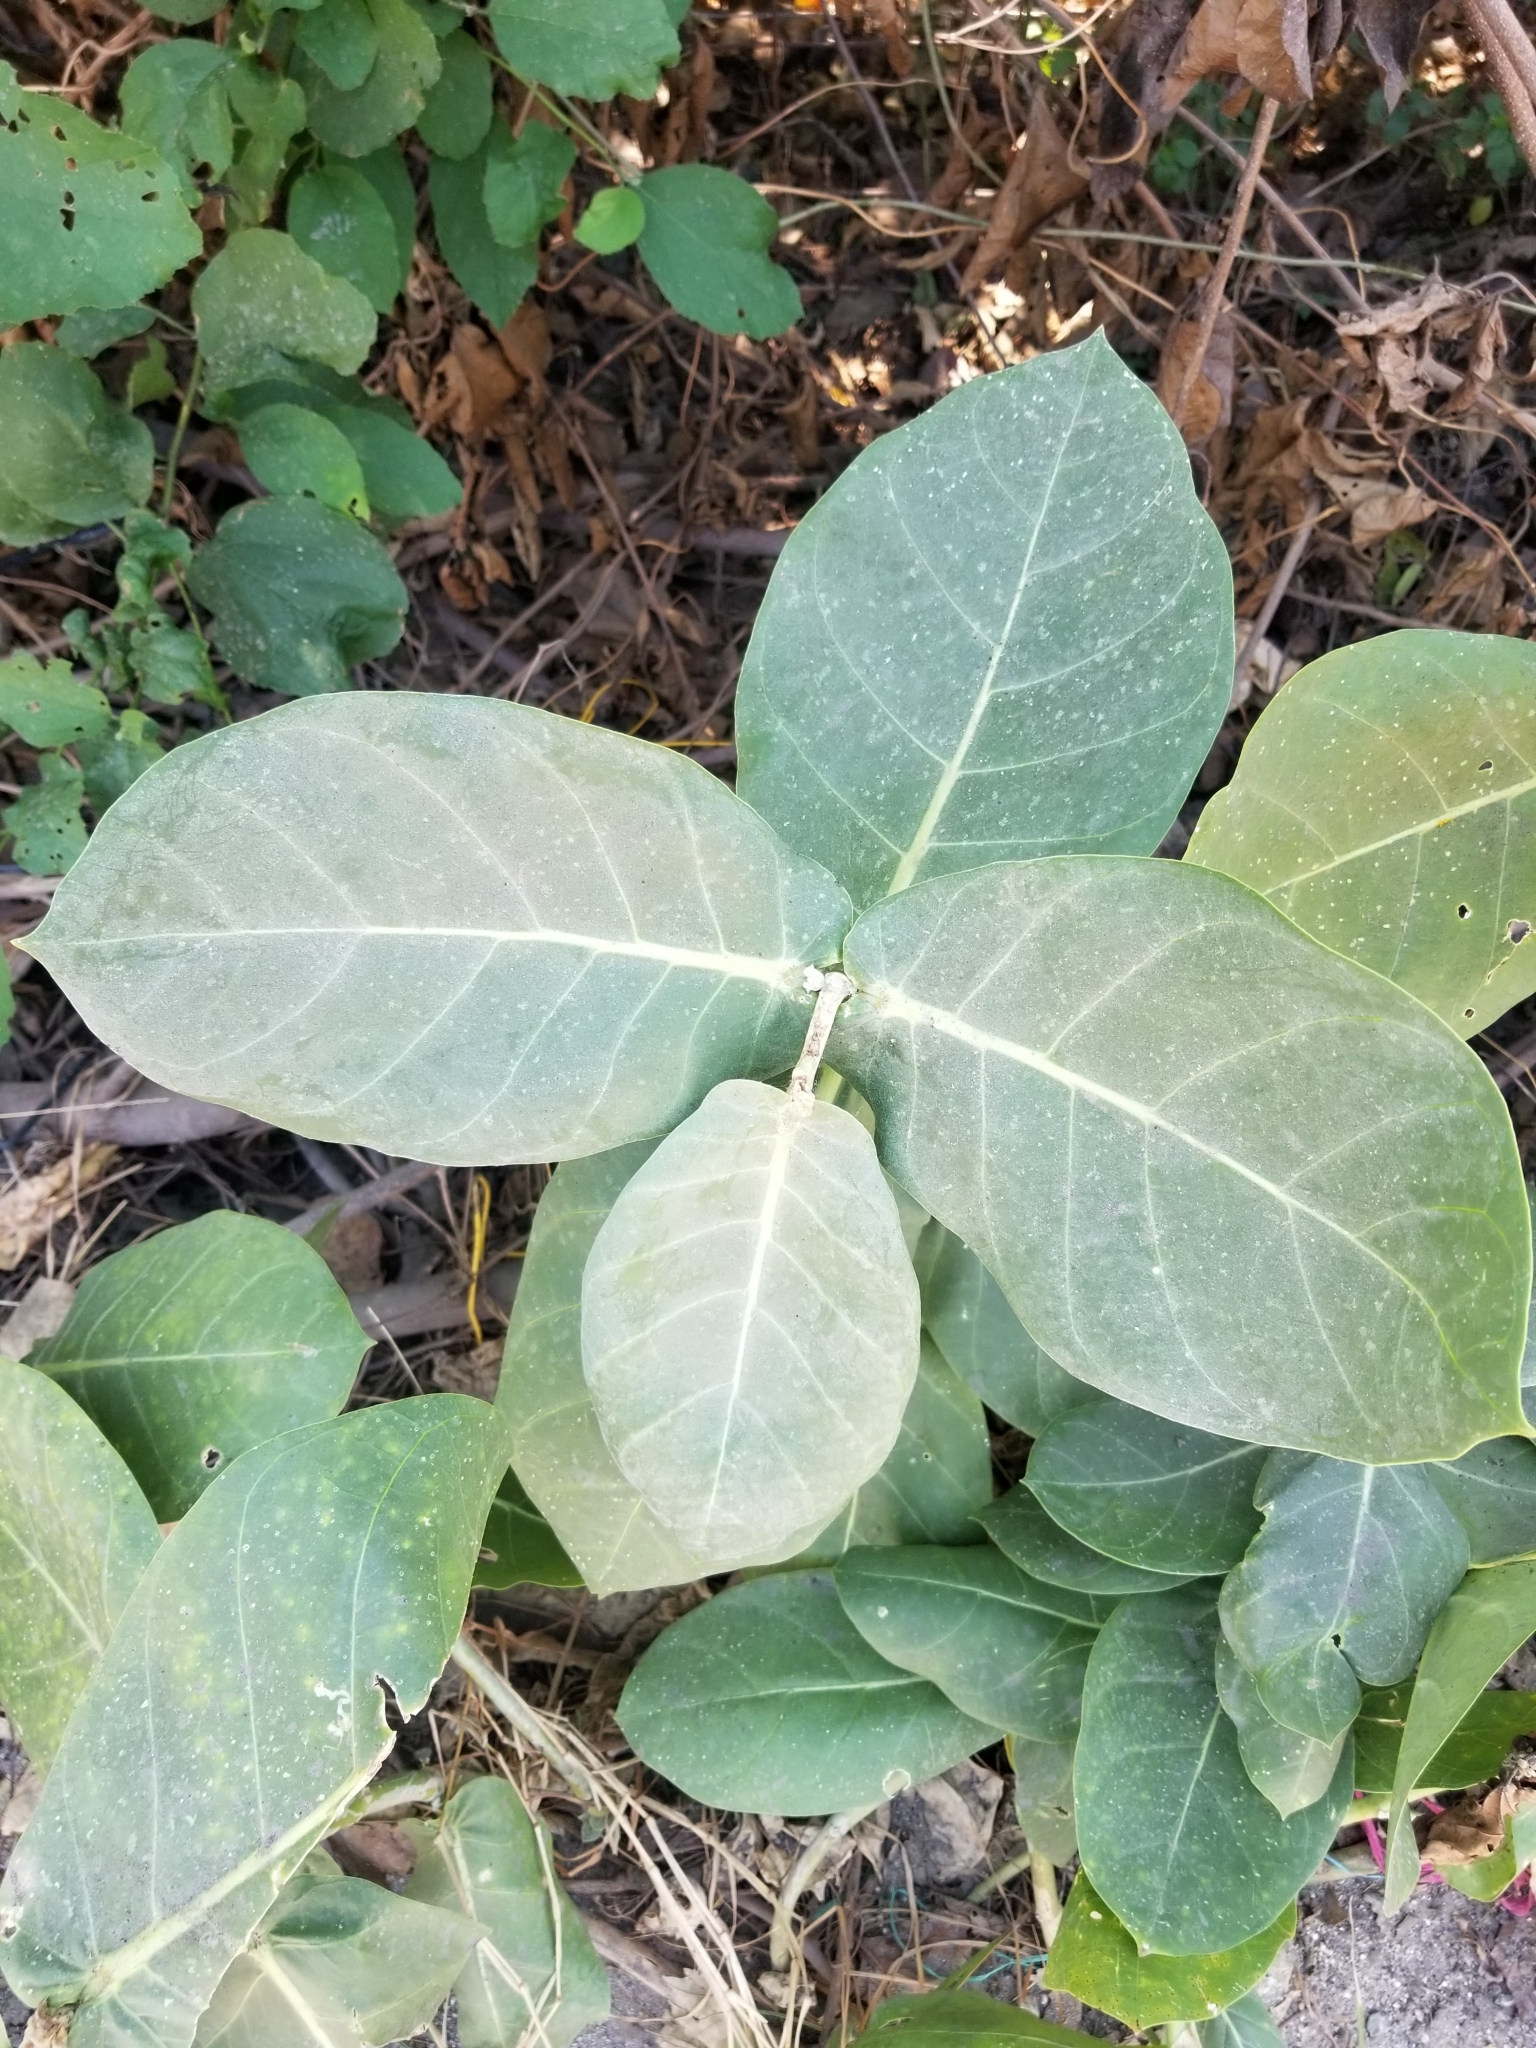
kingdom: Plantae
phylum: Tracheophyta
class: Magnoliopsida
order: Gentianales
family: Apocynaceae
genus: Calotropis
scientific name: Calotropis procera
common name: Roostertree
